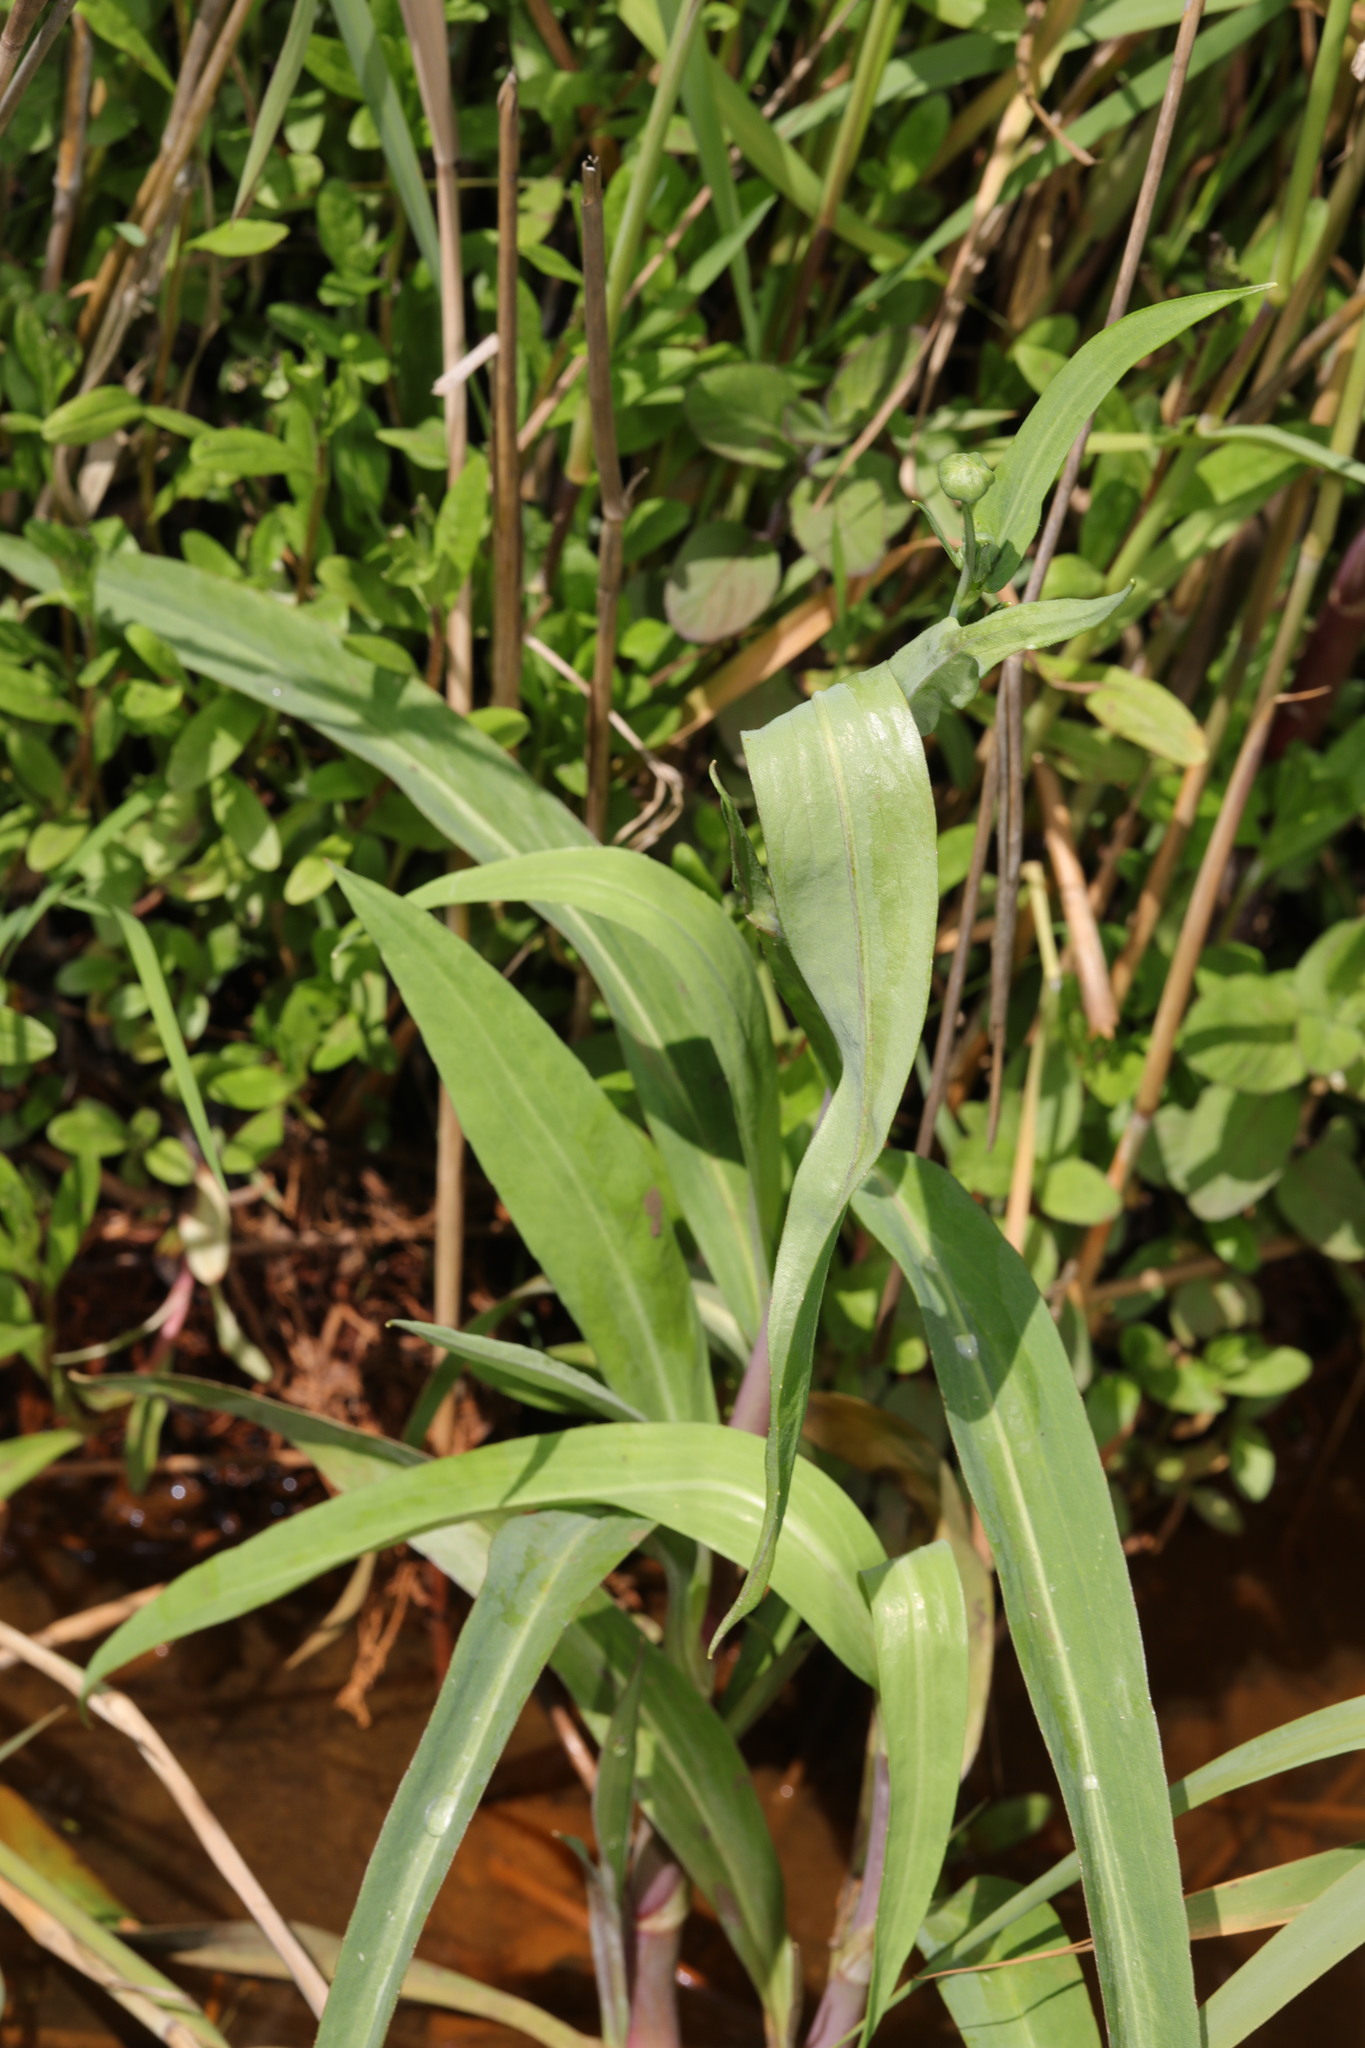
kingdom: Plantae
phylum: Tracheophyta
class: Magnoliopsida
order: Ranunculales
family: Ranunculaceae
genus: Ranunculus
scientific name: Ranunculus lingua
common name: Greater spearwort
